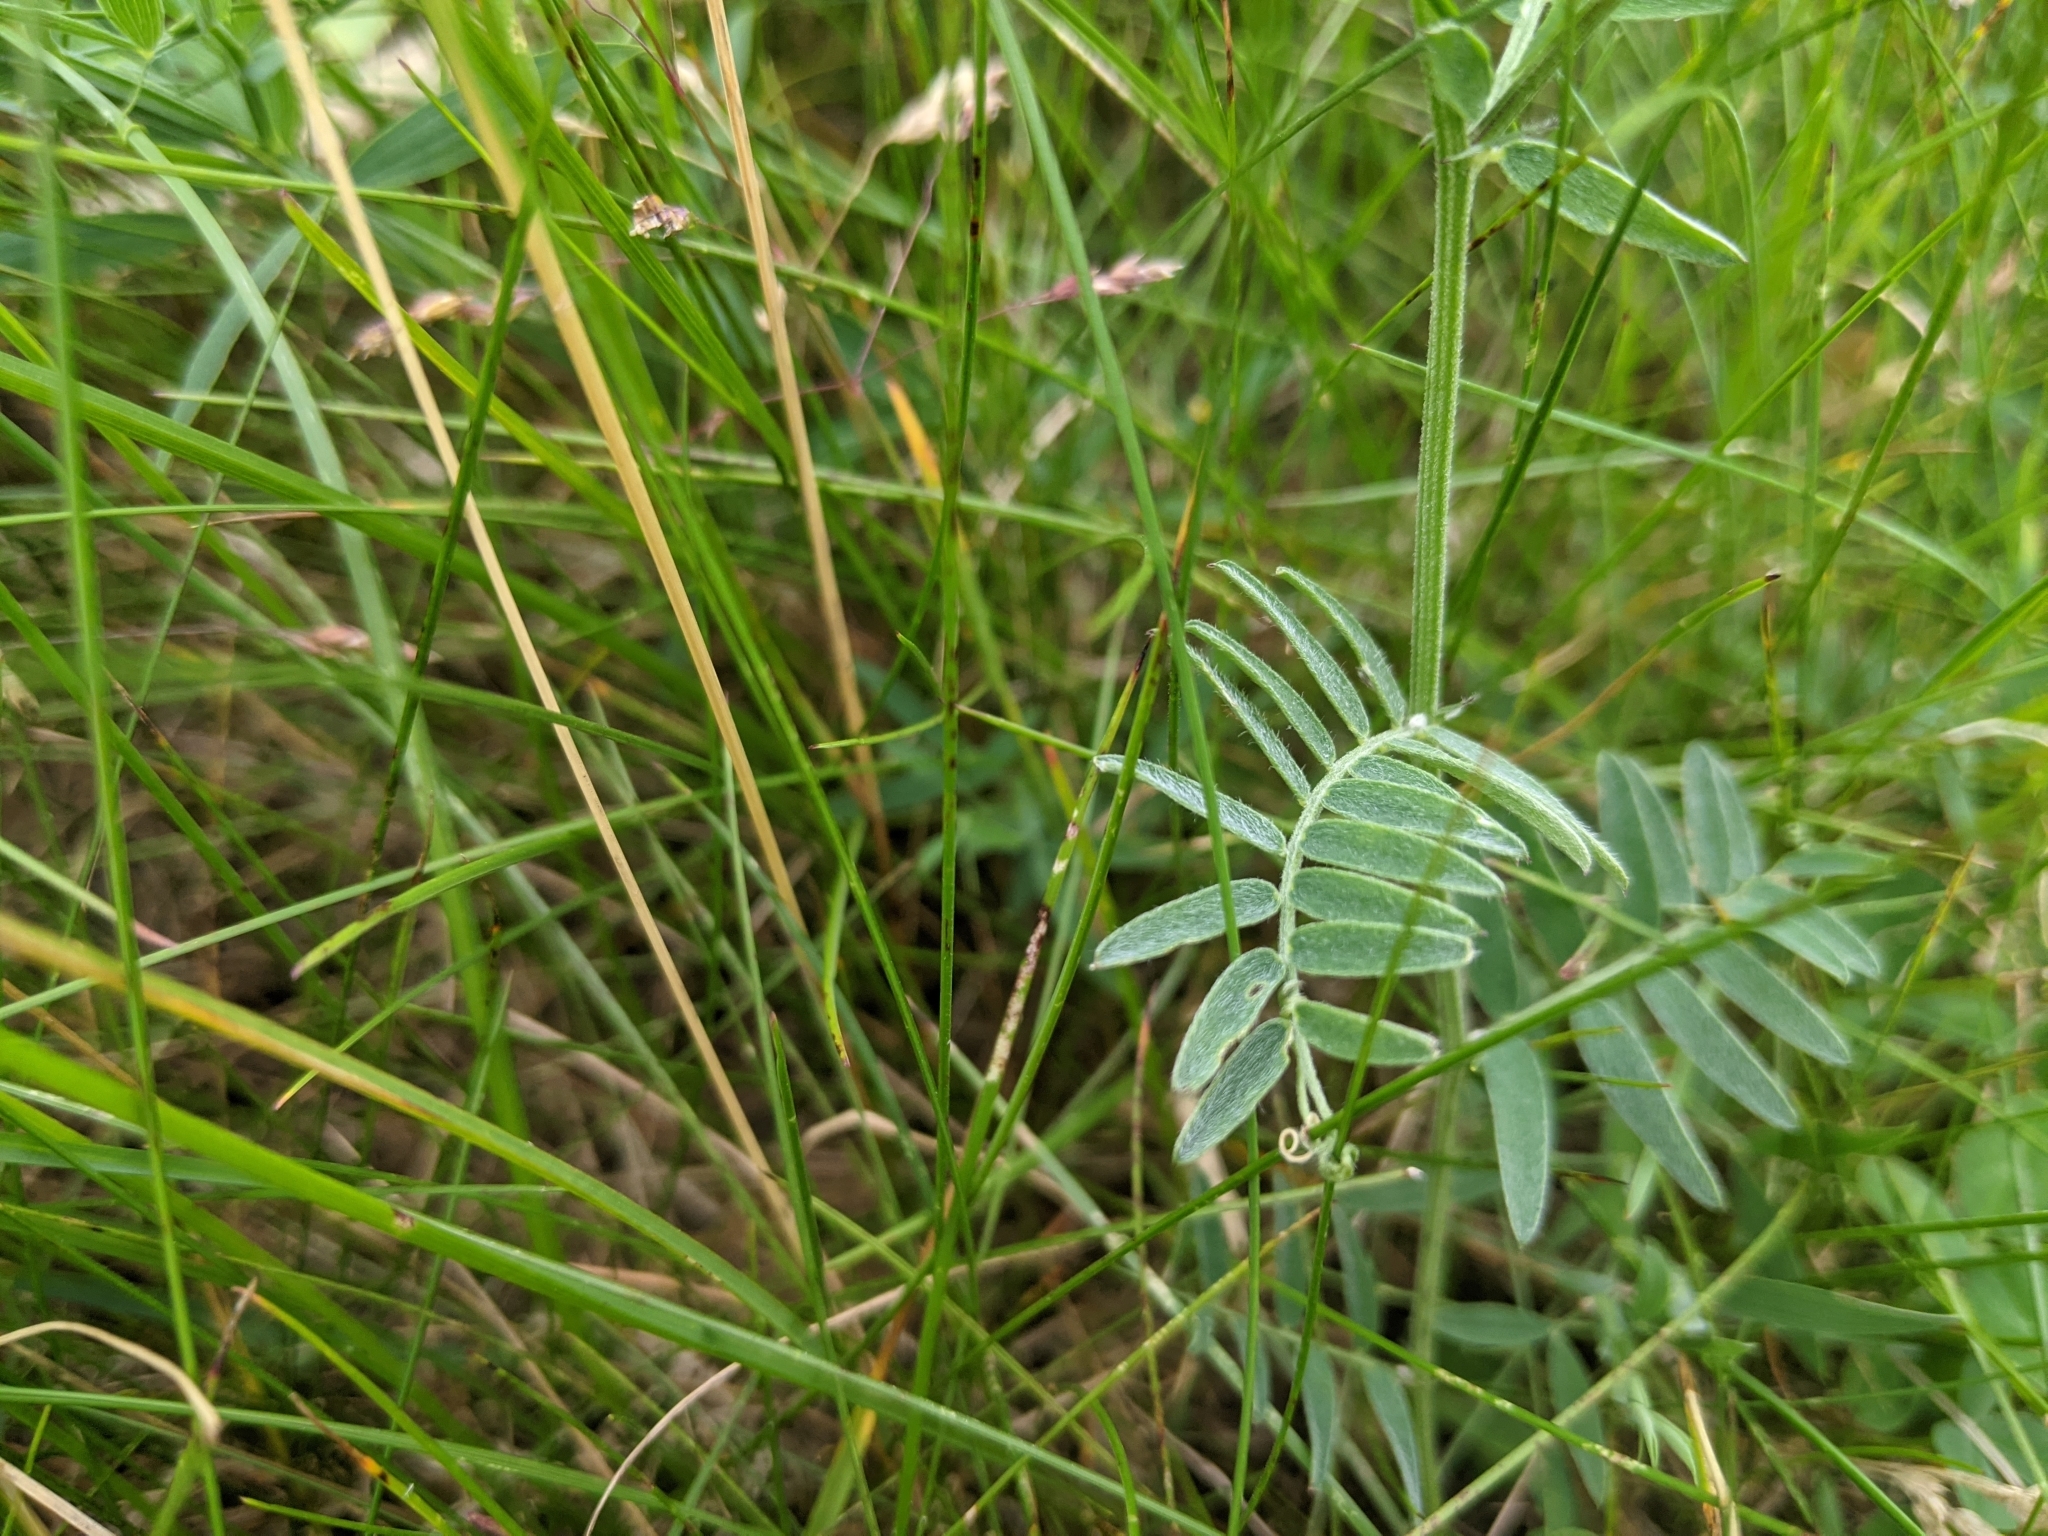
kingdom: Plantae
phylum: Tracheophyta
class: Magnoliopsida
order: Fabales
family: Fabaceae
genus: Vicia
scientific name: Vicia cracca
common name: Bird vetch
